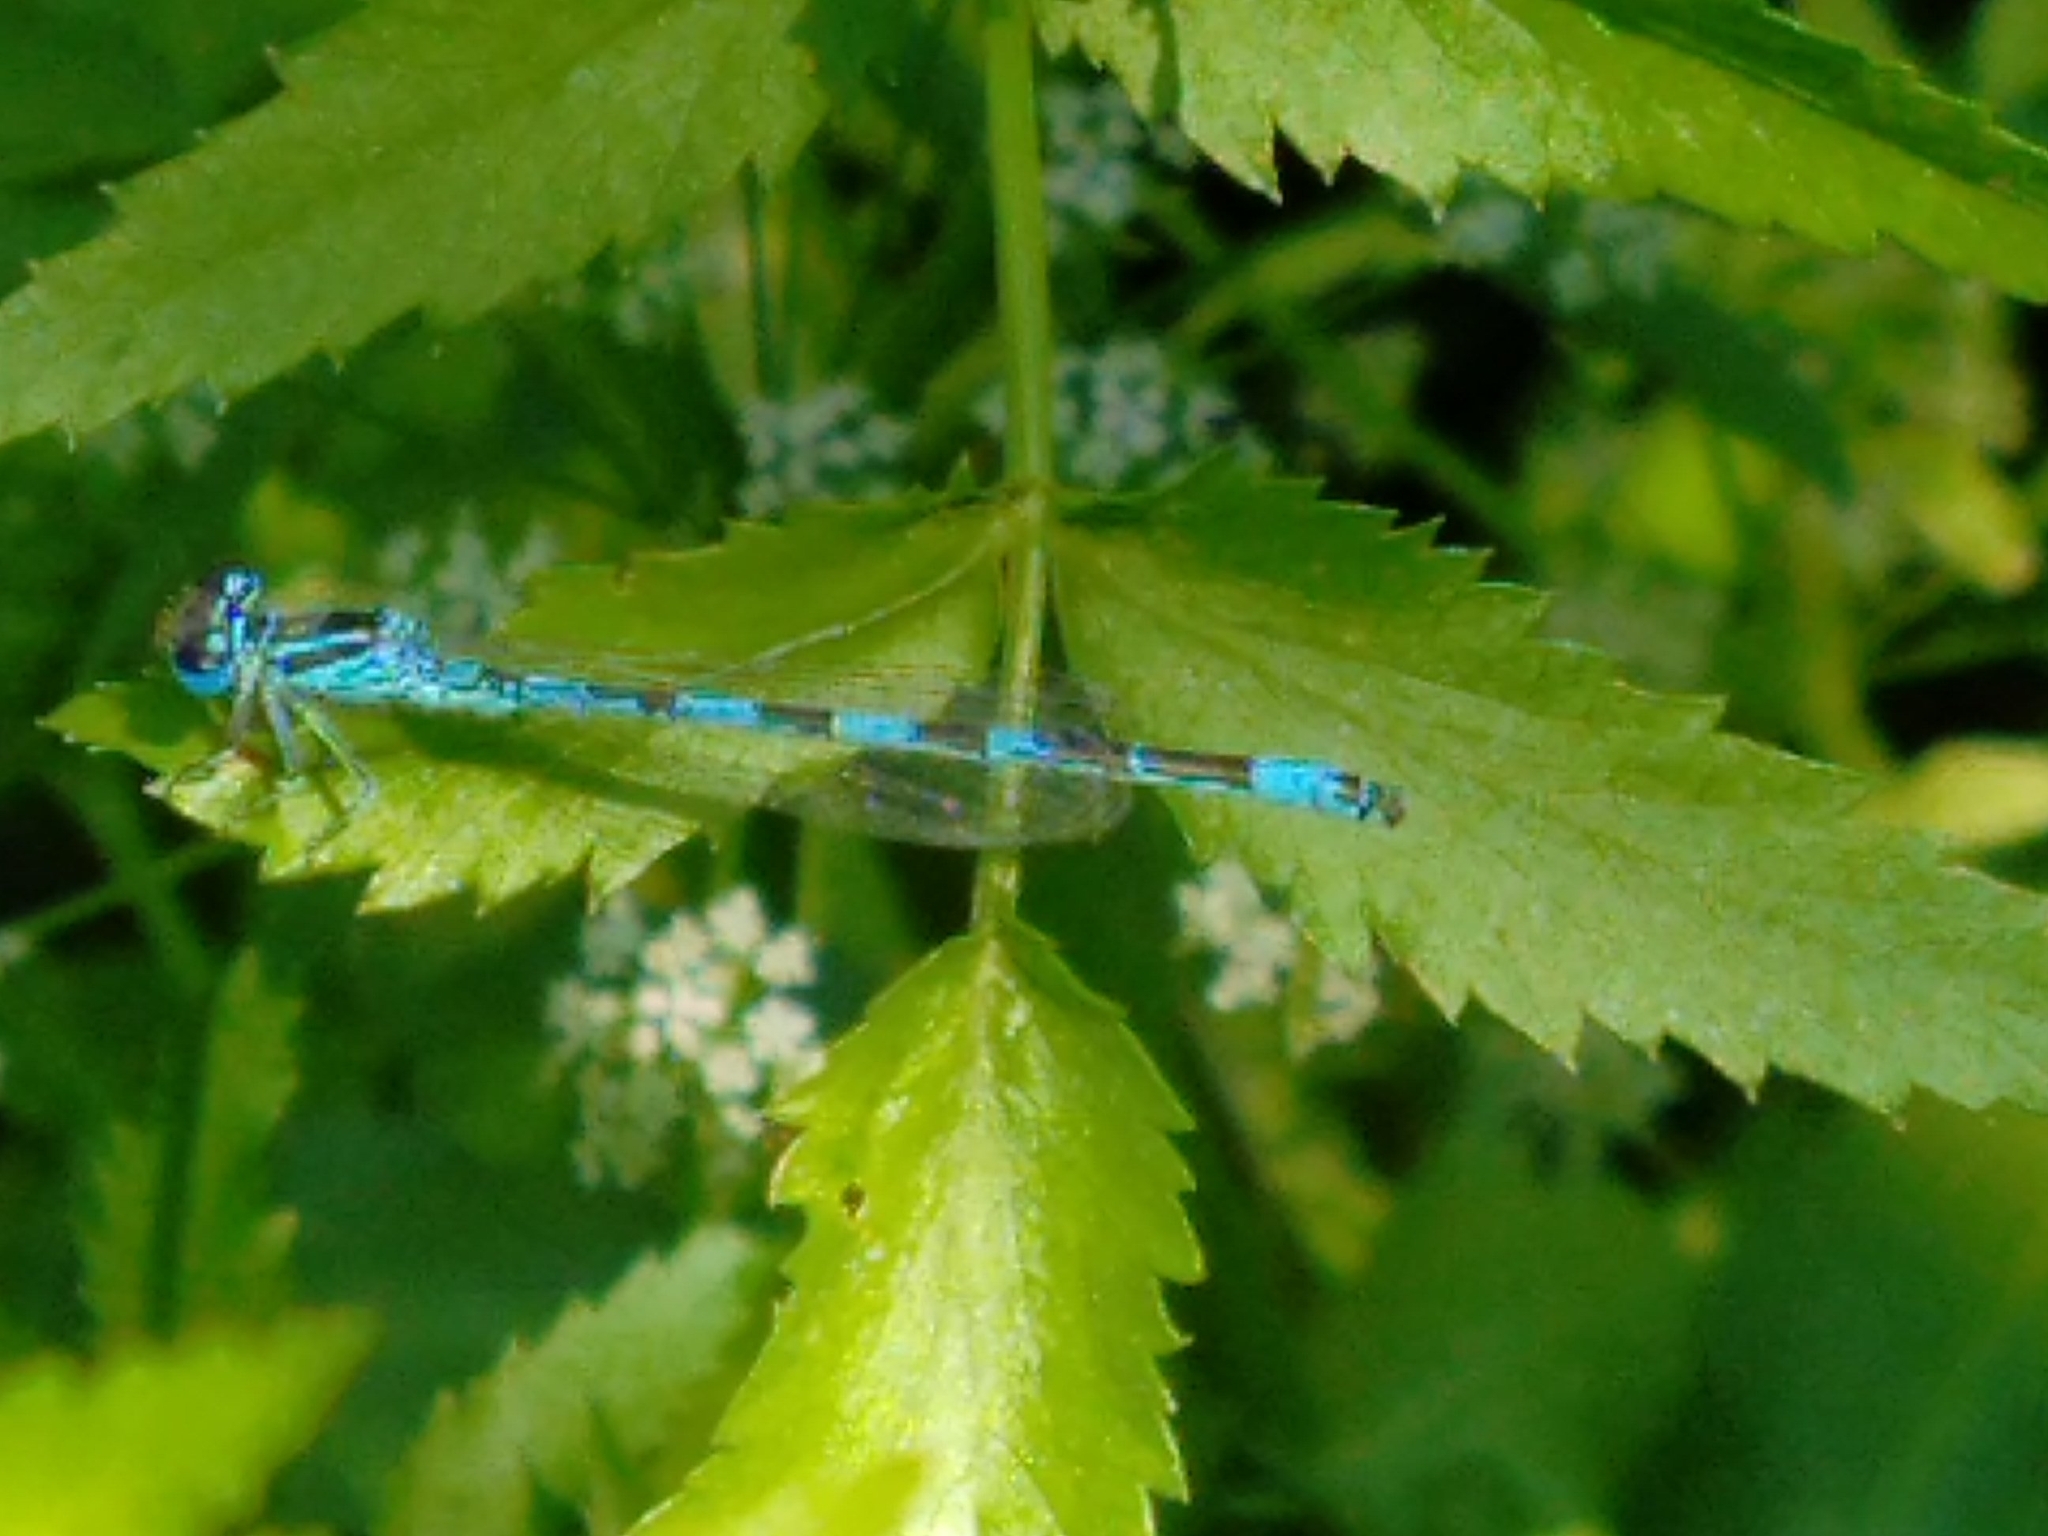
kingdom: Animalia
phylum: Arthropoda
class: Insecta
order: Odonata
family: Coenagrionidae
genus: Coenagrion
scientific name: Coenagrion mercuriale
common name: Southern damselfly
